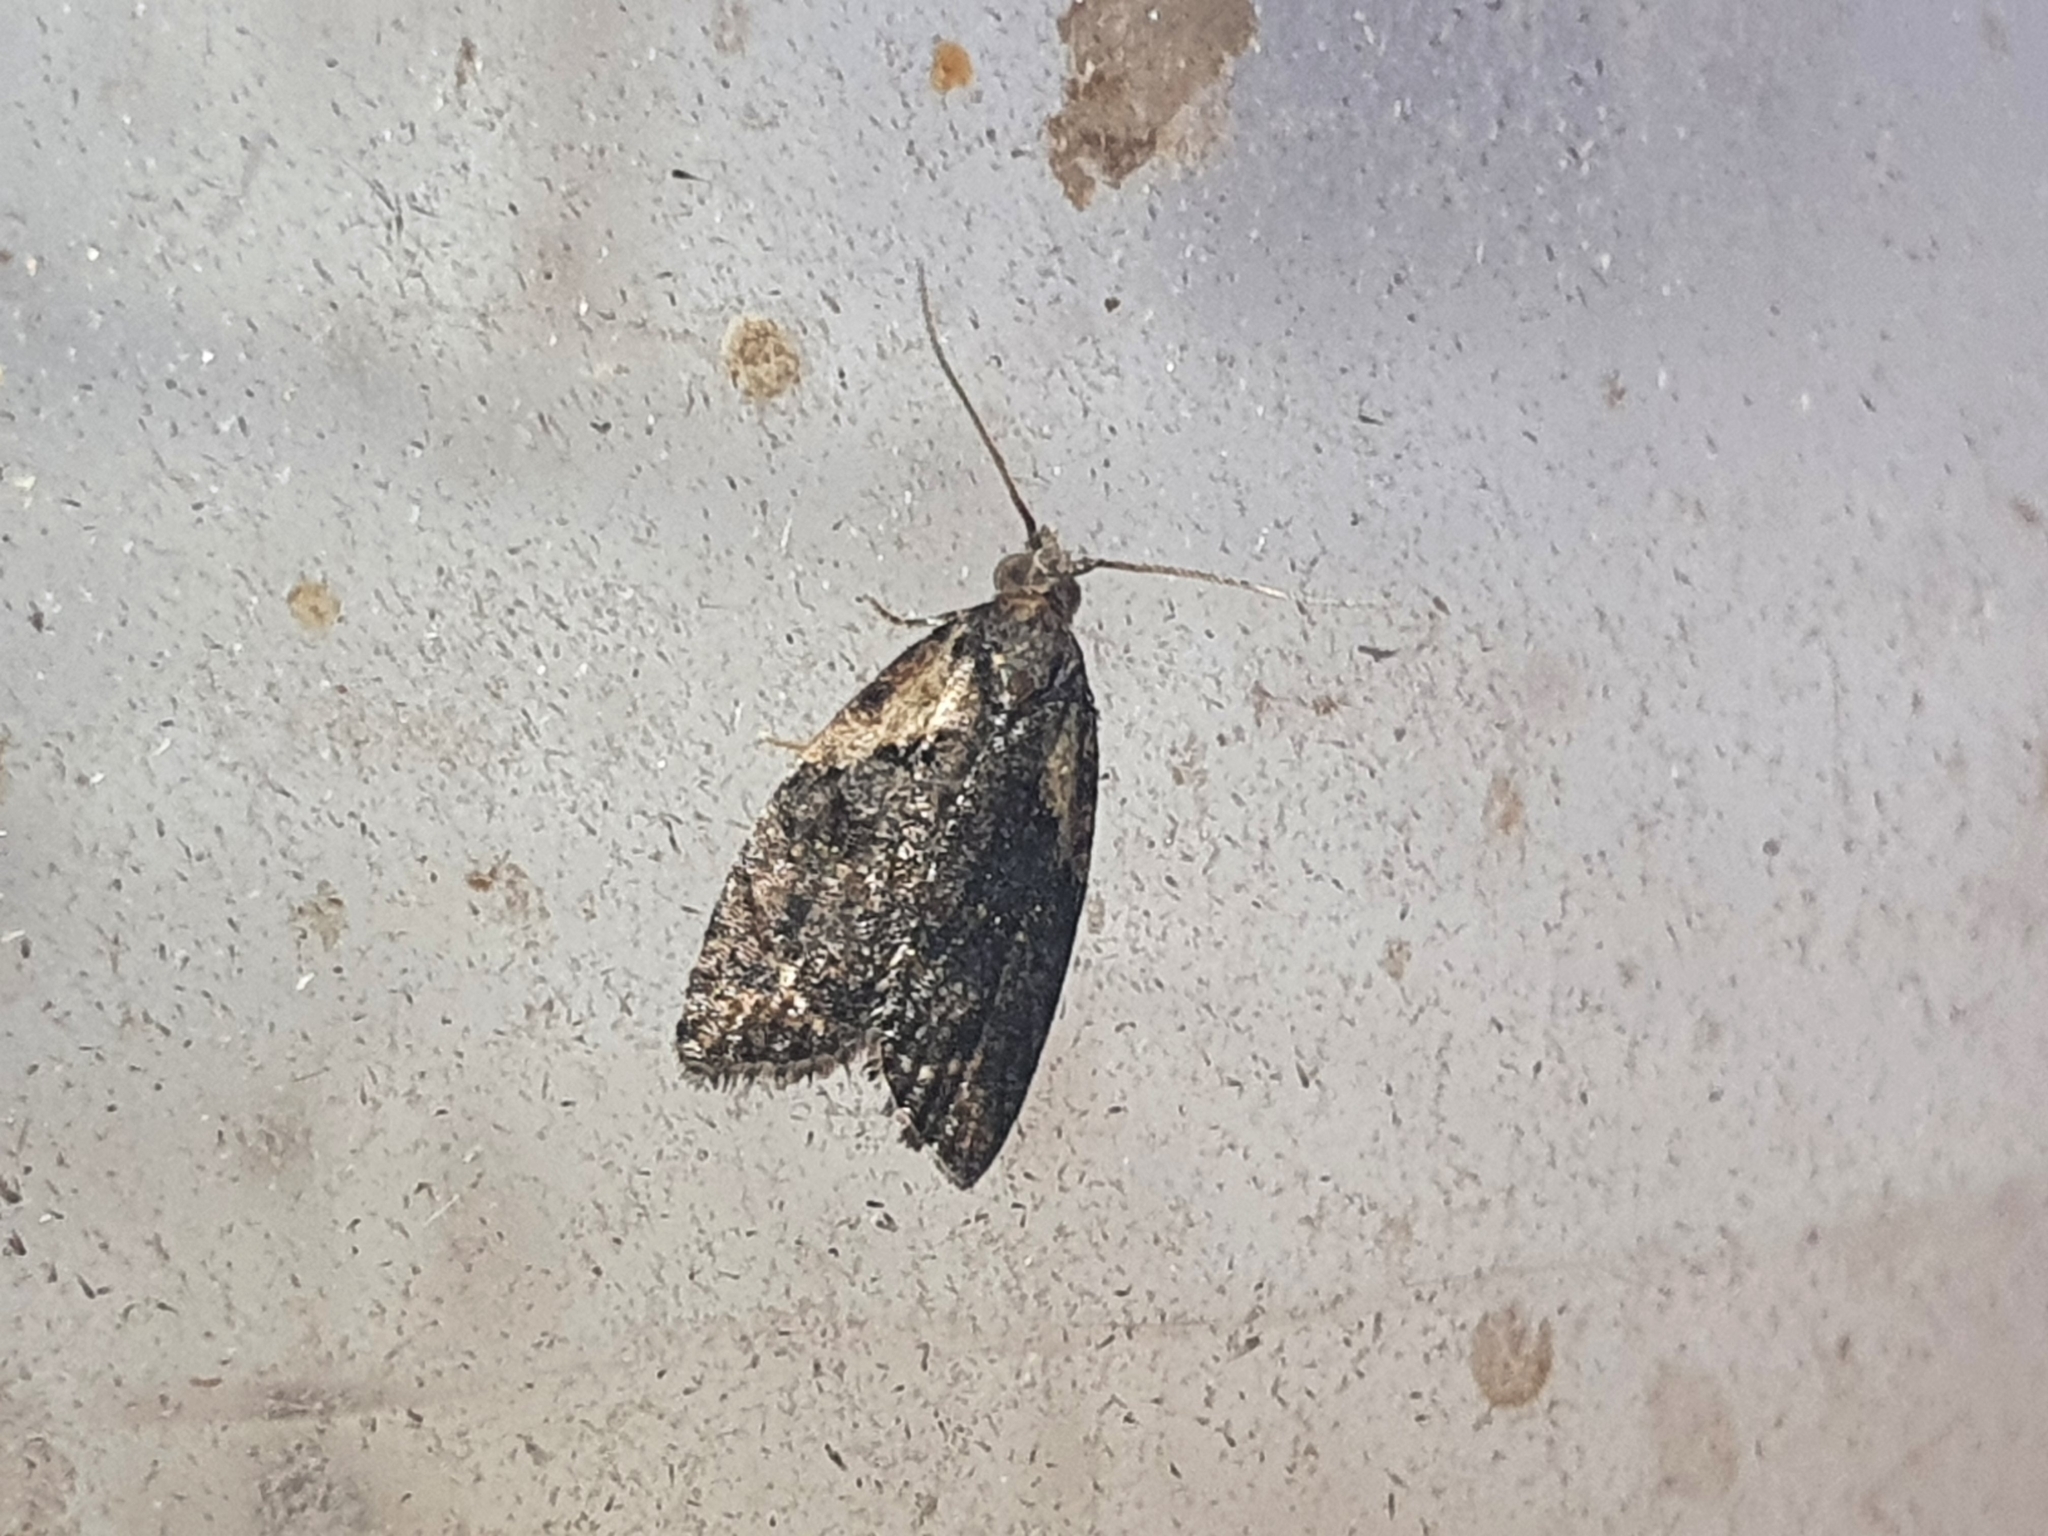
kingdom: Animalia
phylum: Arthropoda
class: Insecta
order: Lepidoptera
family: Tortricidae
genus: Capua
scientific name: Capua intractana
